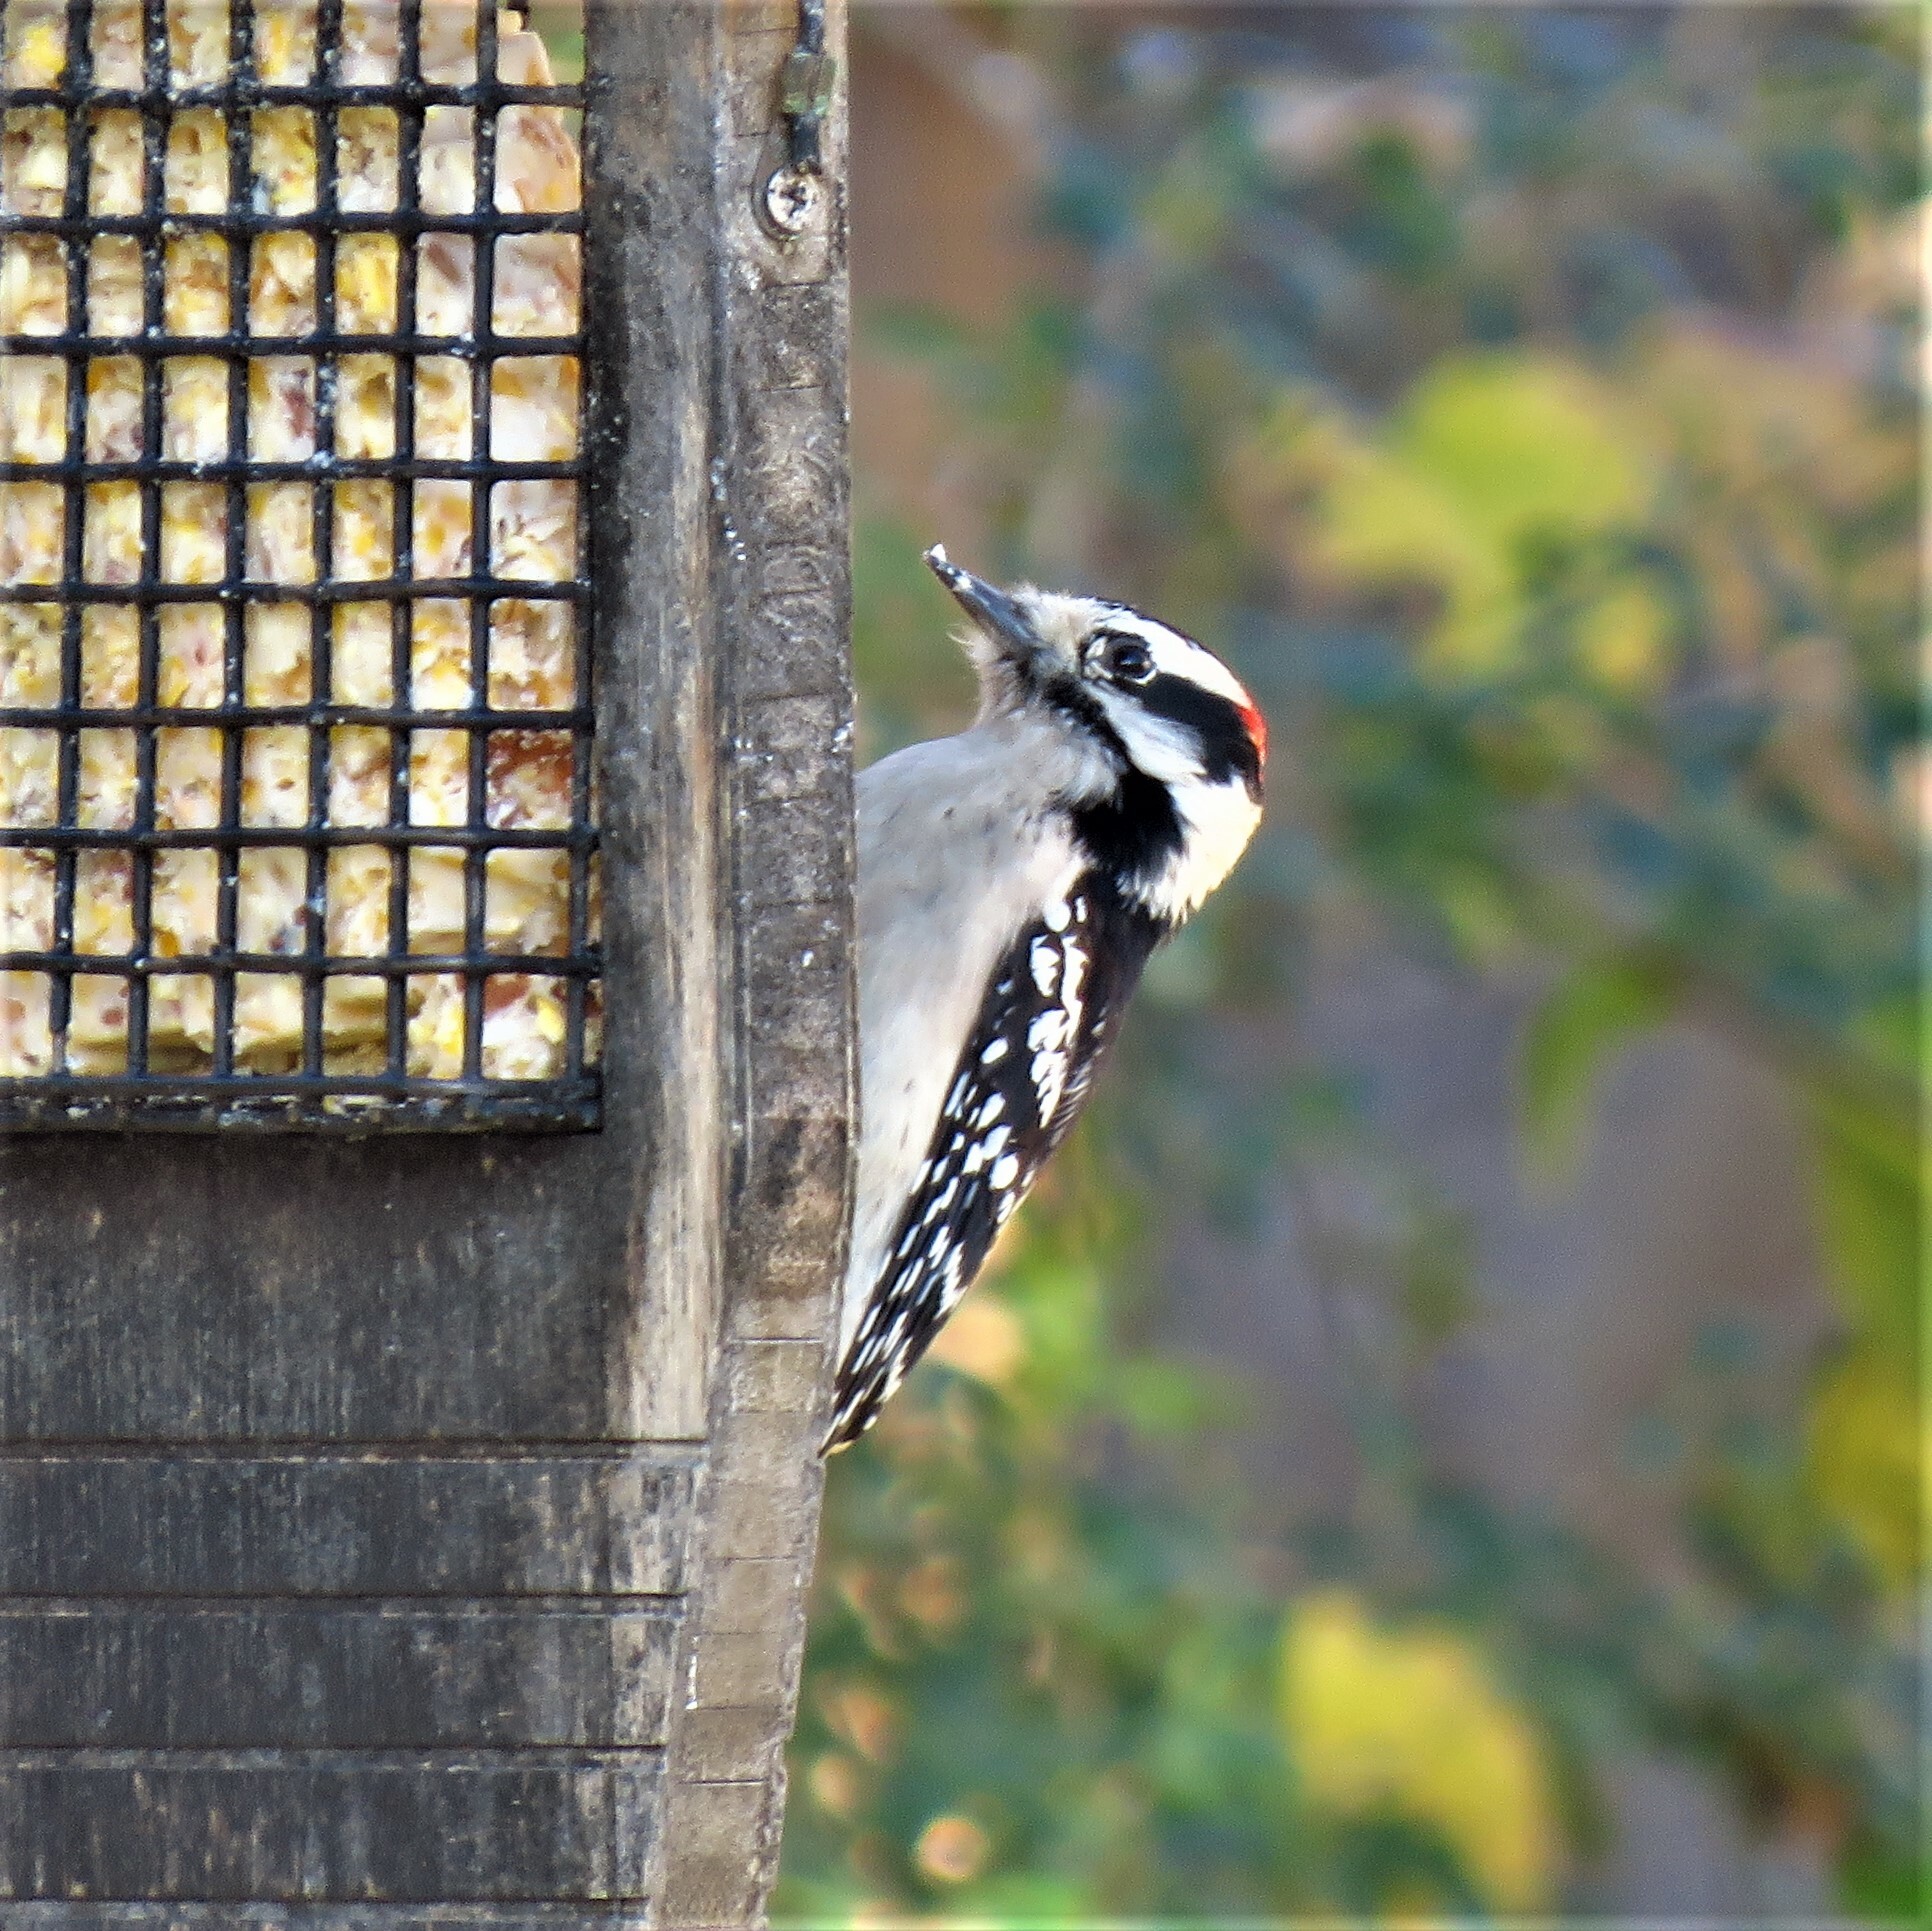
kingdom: Animalia
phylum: Chordata
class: Aves
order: Piciformes
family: Picidae
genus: Dryobates
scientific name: Dryobates pubescens
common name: Downy woodpecker
